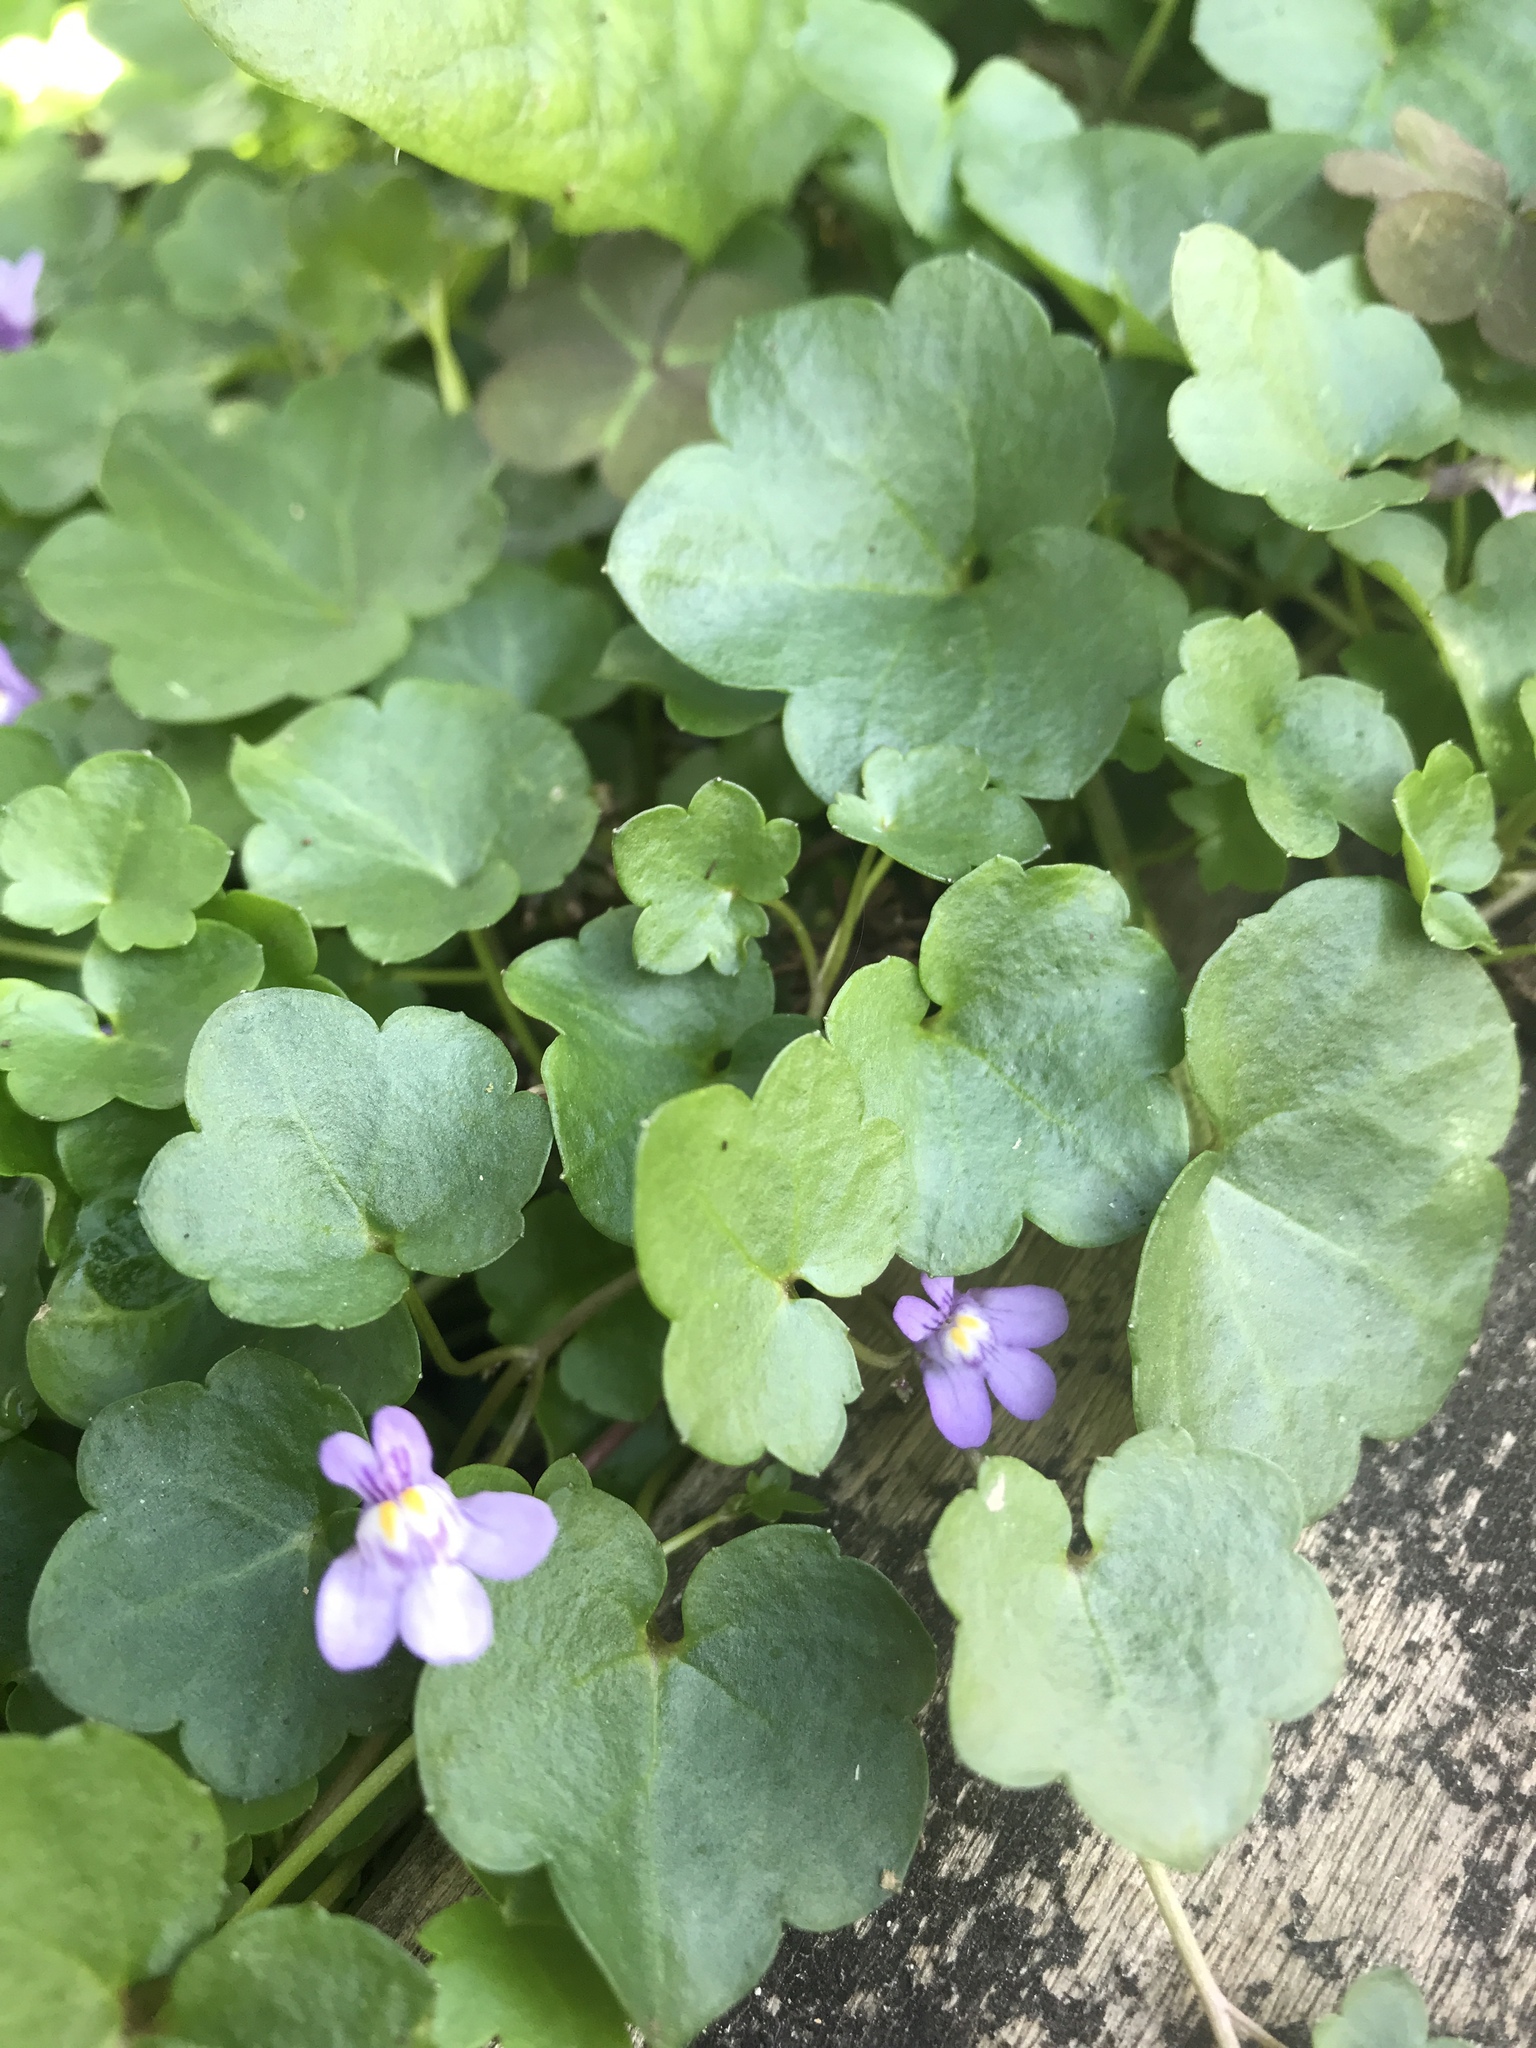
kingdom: Plantae
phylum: Tracheophyta
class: Magnoliopsida
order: Lamiales
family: Plantaginaceae
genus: Cymbalaria
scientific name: Cymbalaria muralis
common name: Ivy-leaved toadflax
